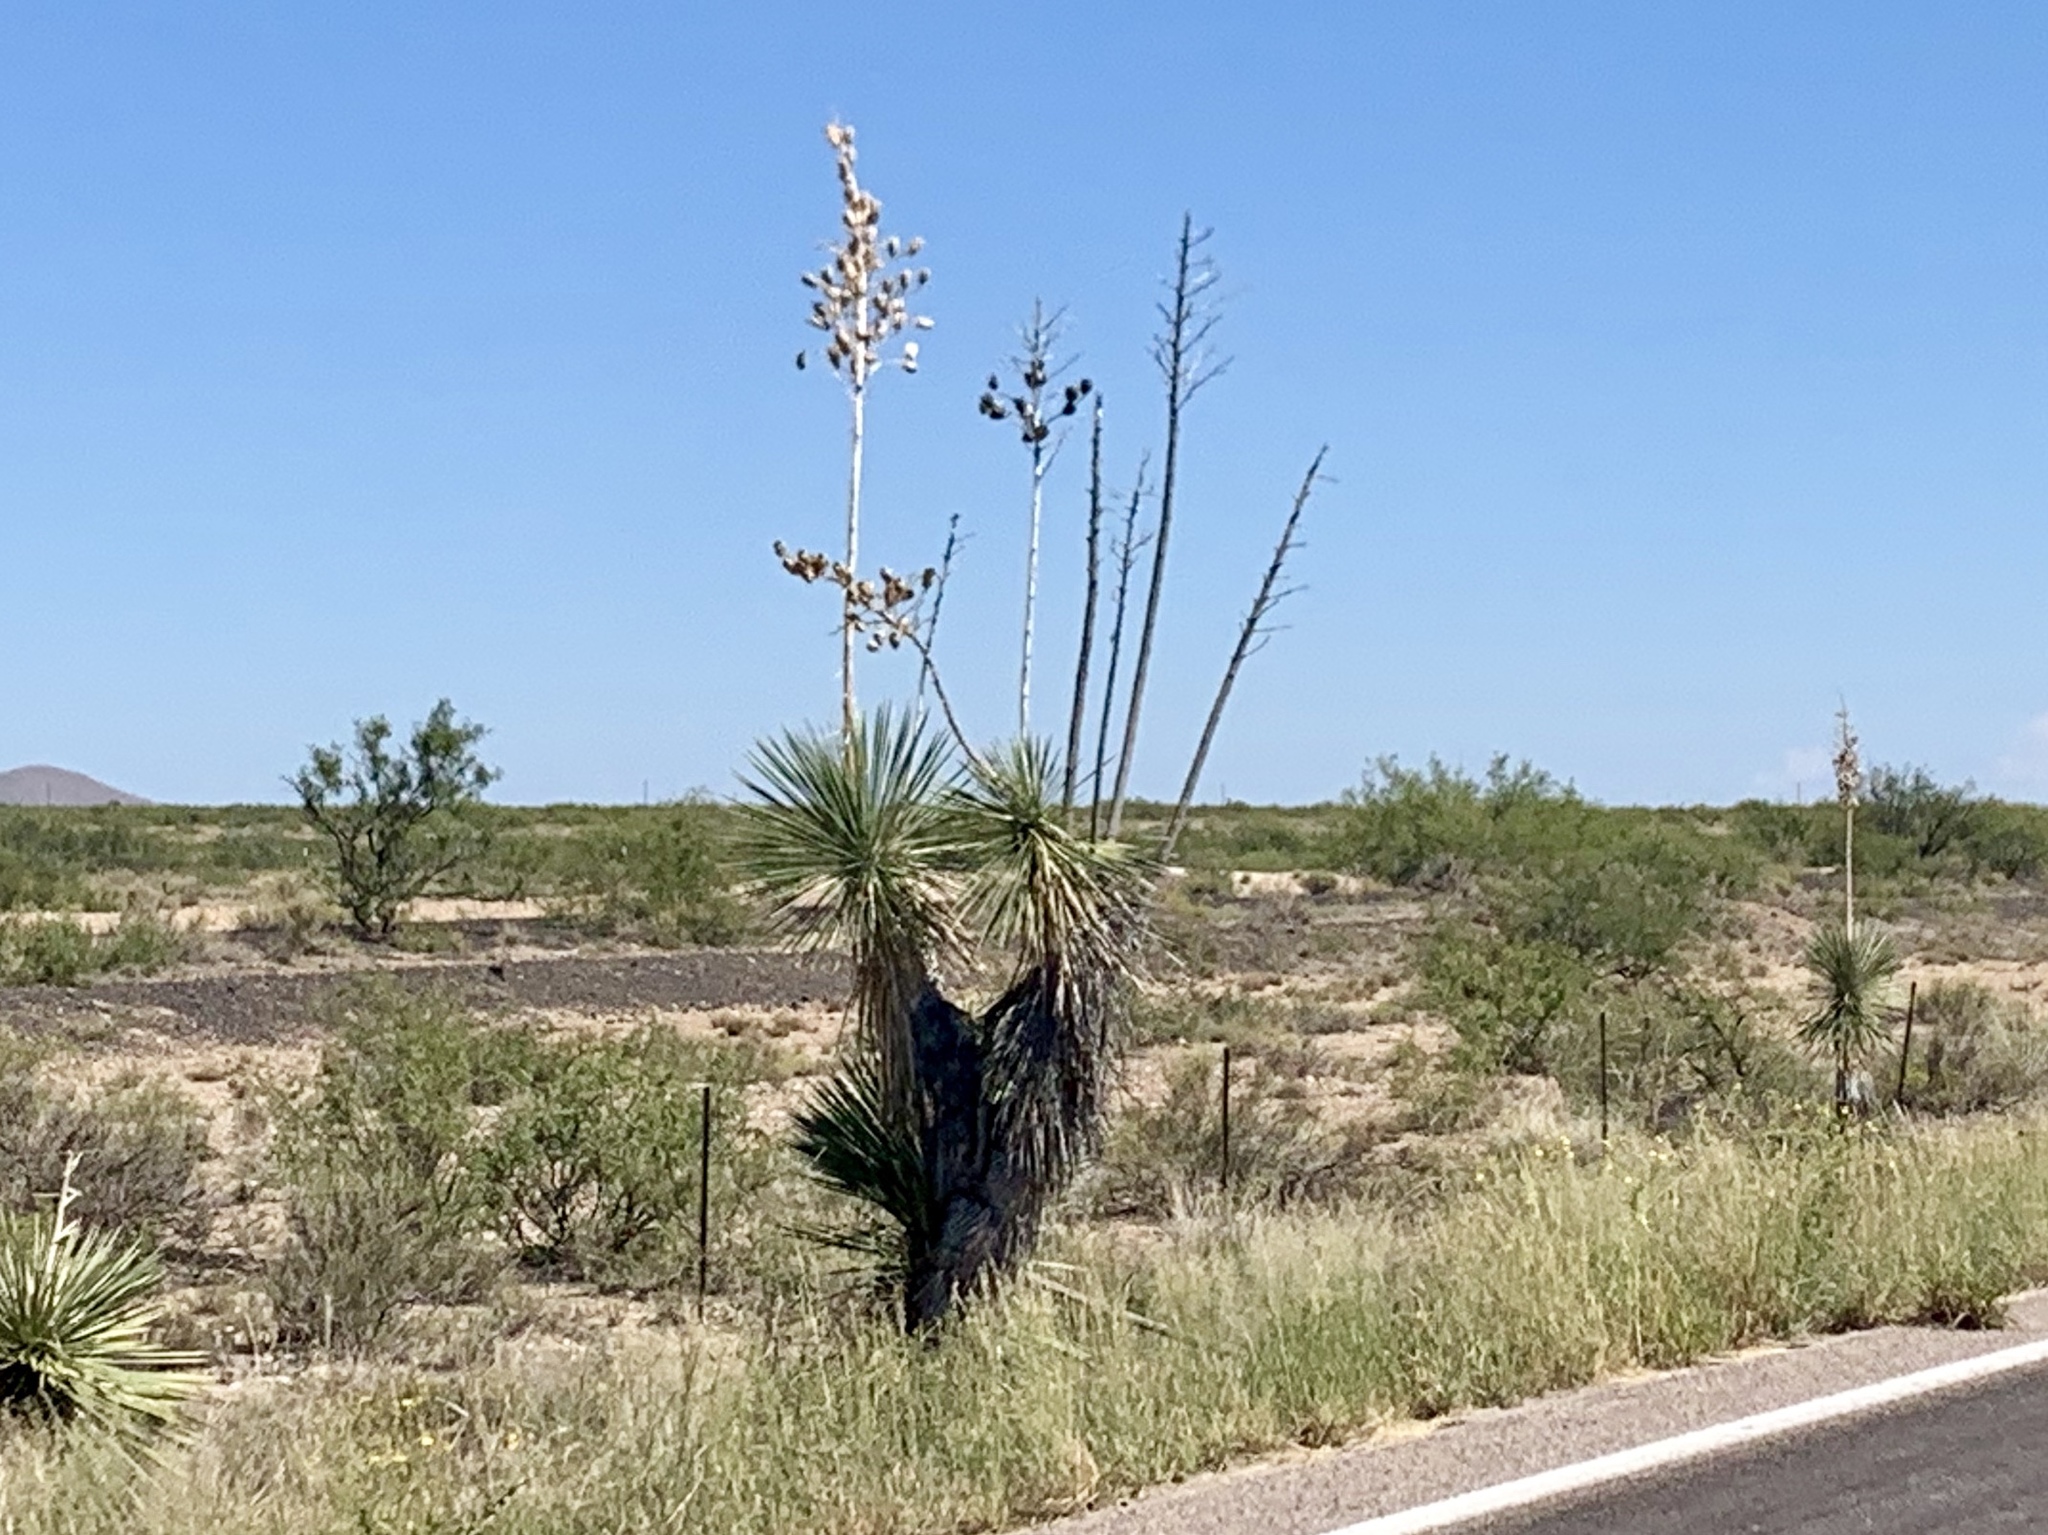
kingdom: Plantae
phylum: Tracheophyta
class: Liliopsida
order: Asparagales
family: Asparagaceae
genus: Yucca
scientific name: Yucca elata
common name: Palmella
